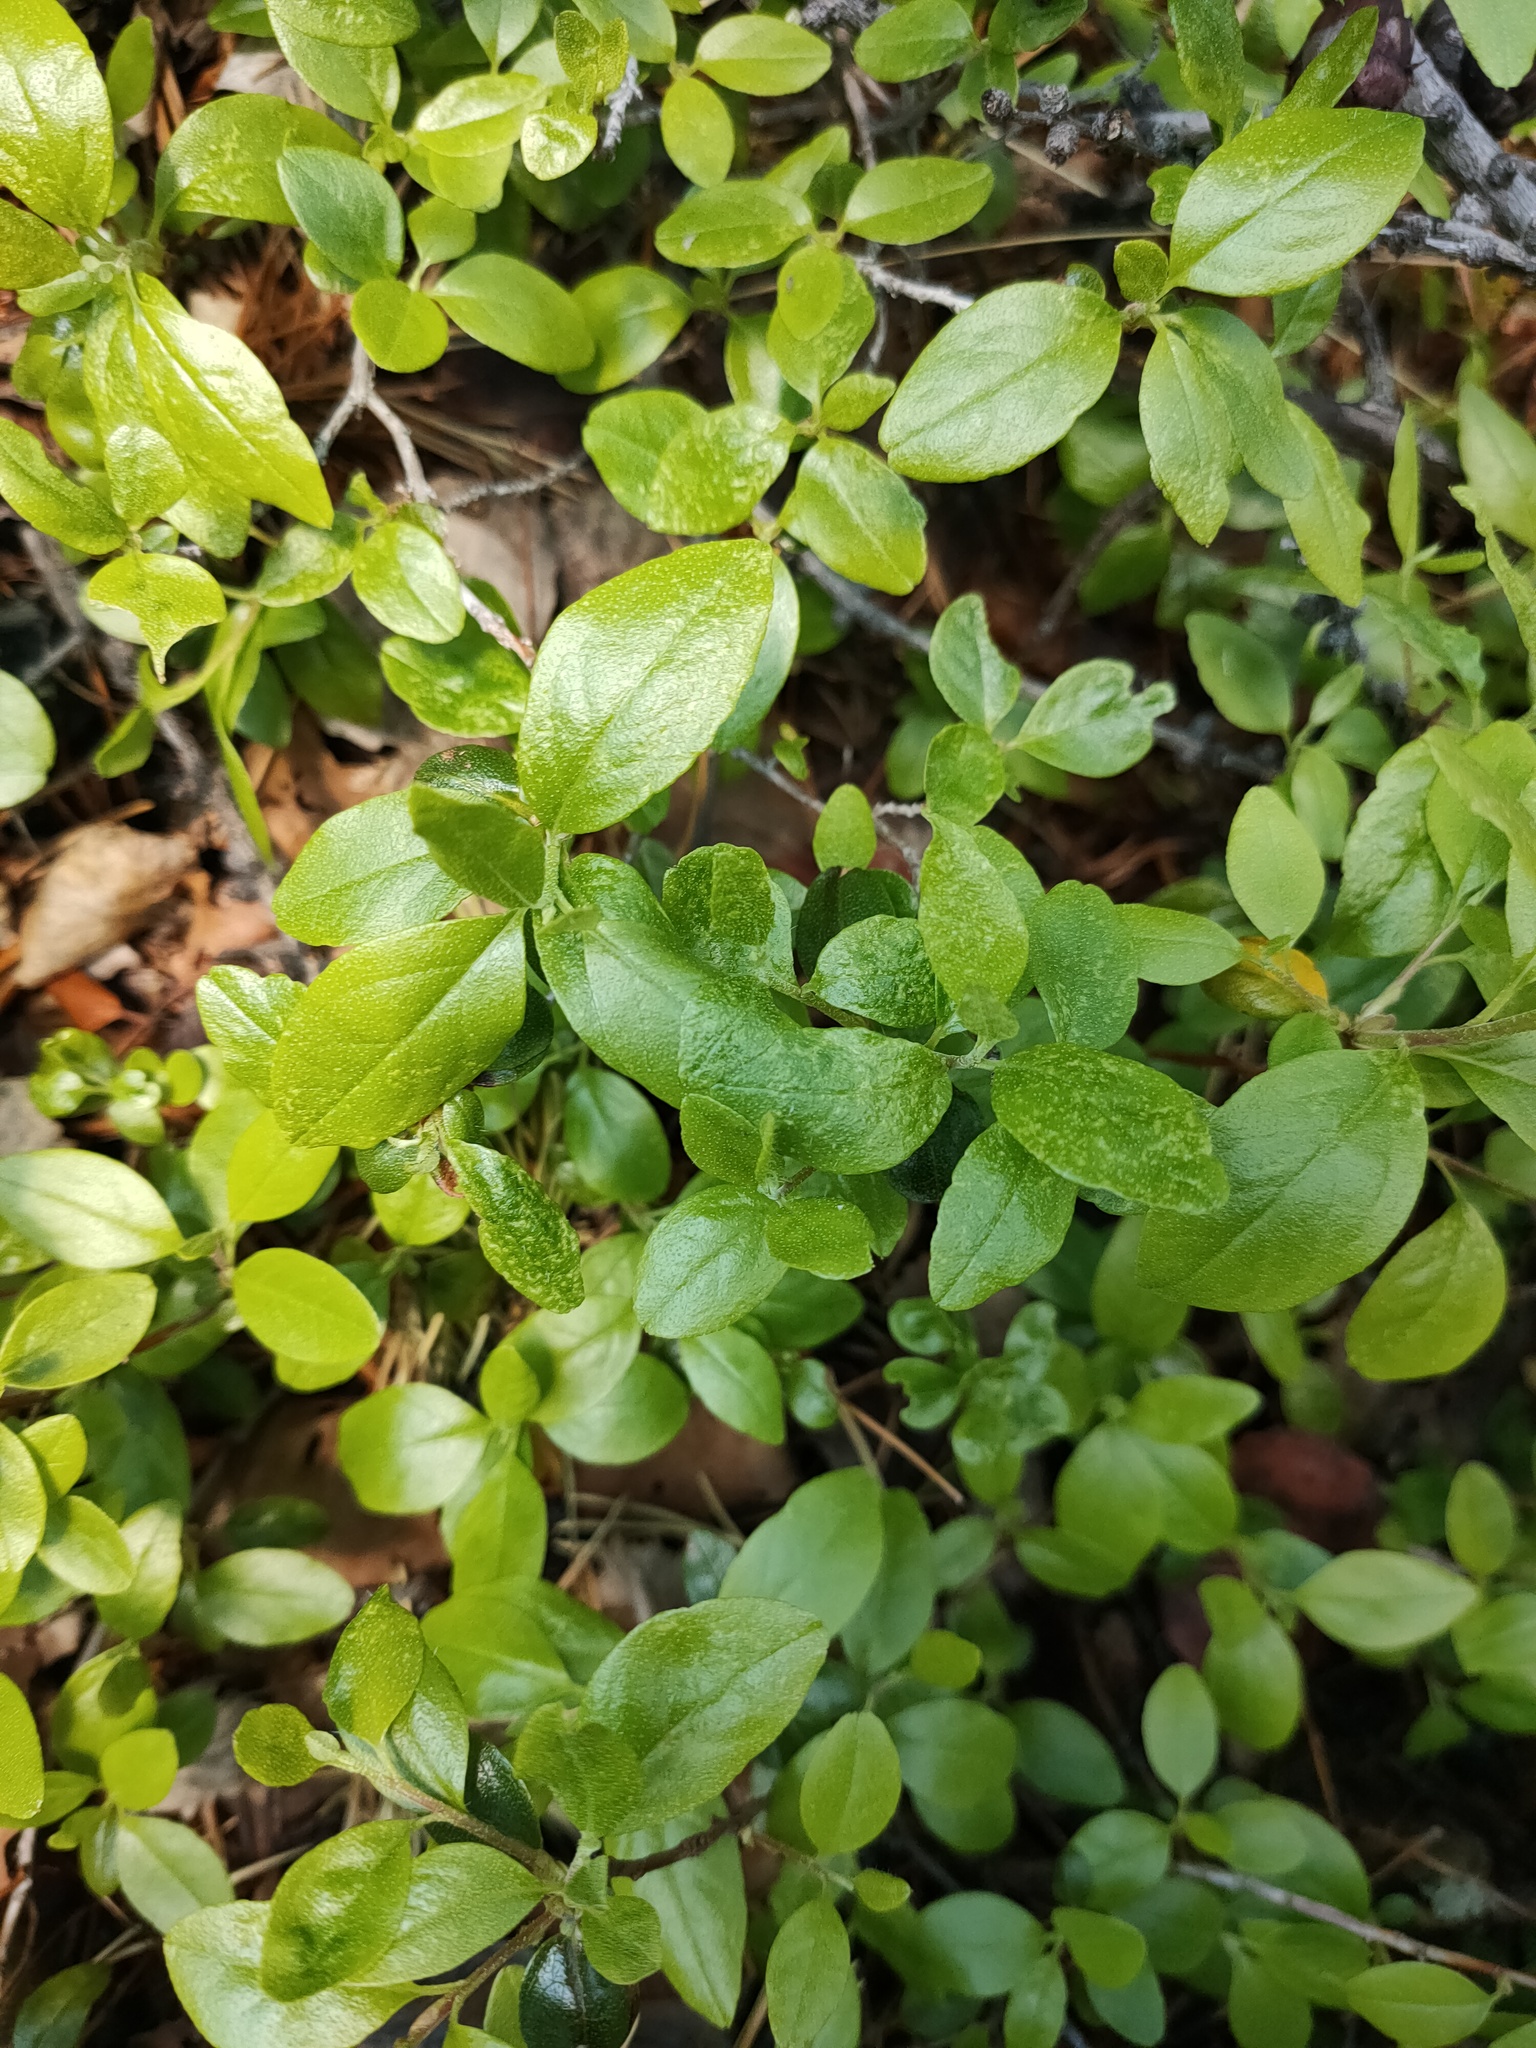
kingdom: Plantae
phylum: Tracheophyta
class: Magnoliopsida
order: Ericales
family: Ericaceae
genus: Rhododendron
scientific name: Rhododendron dauricum
